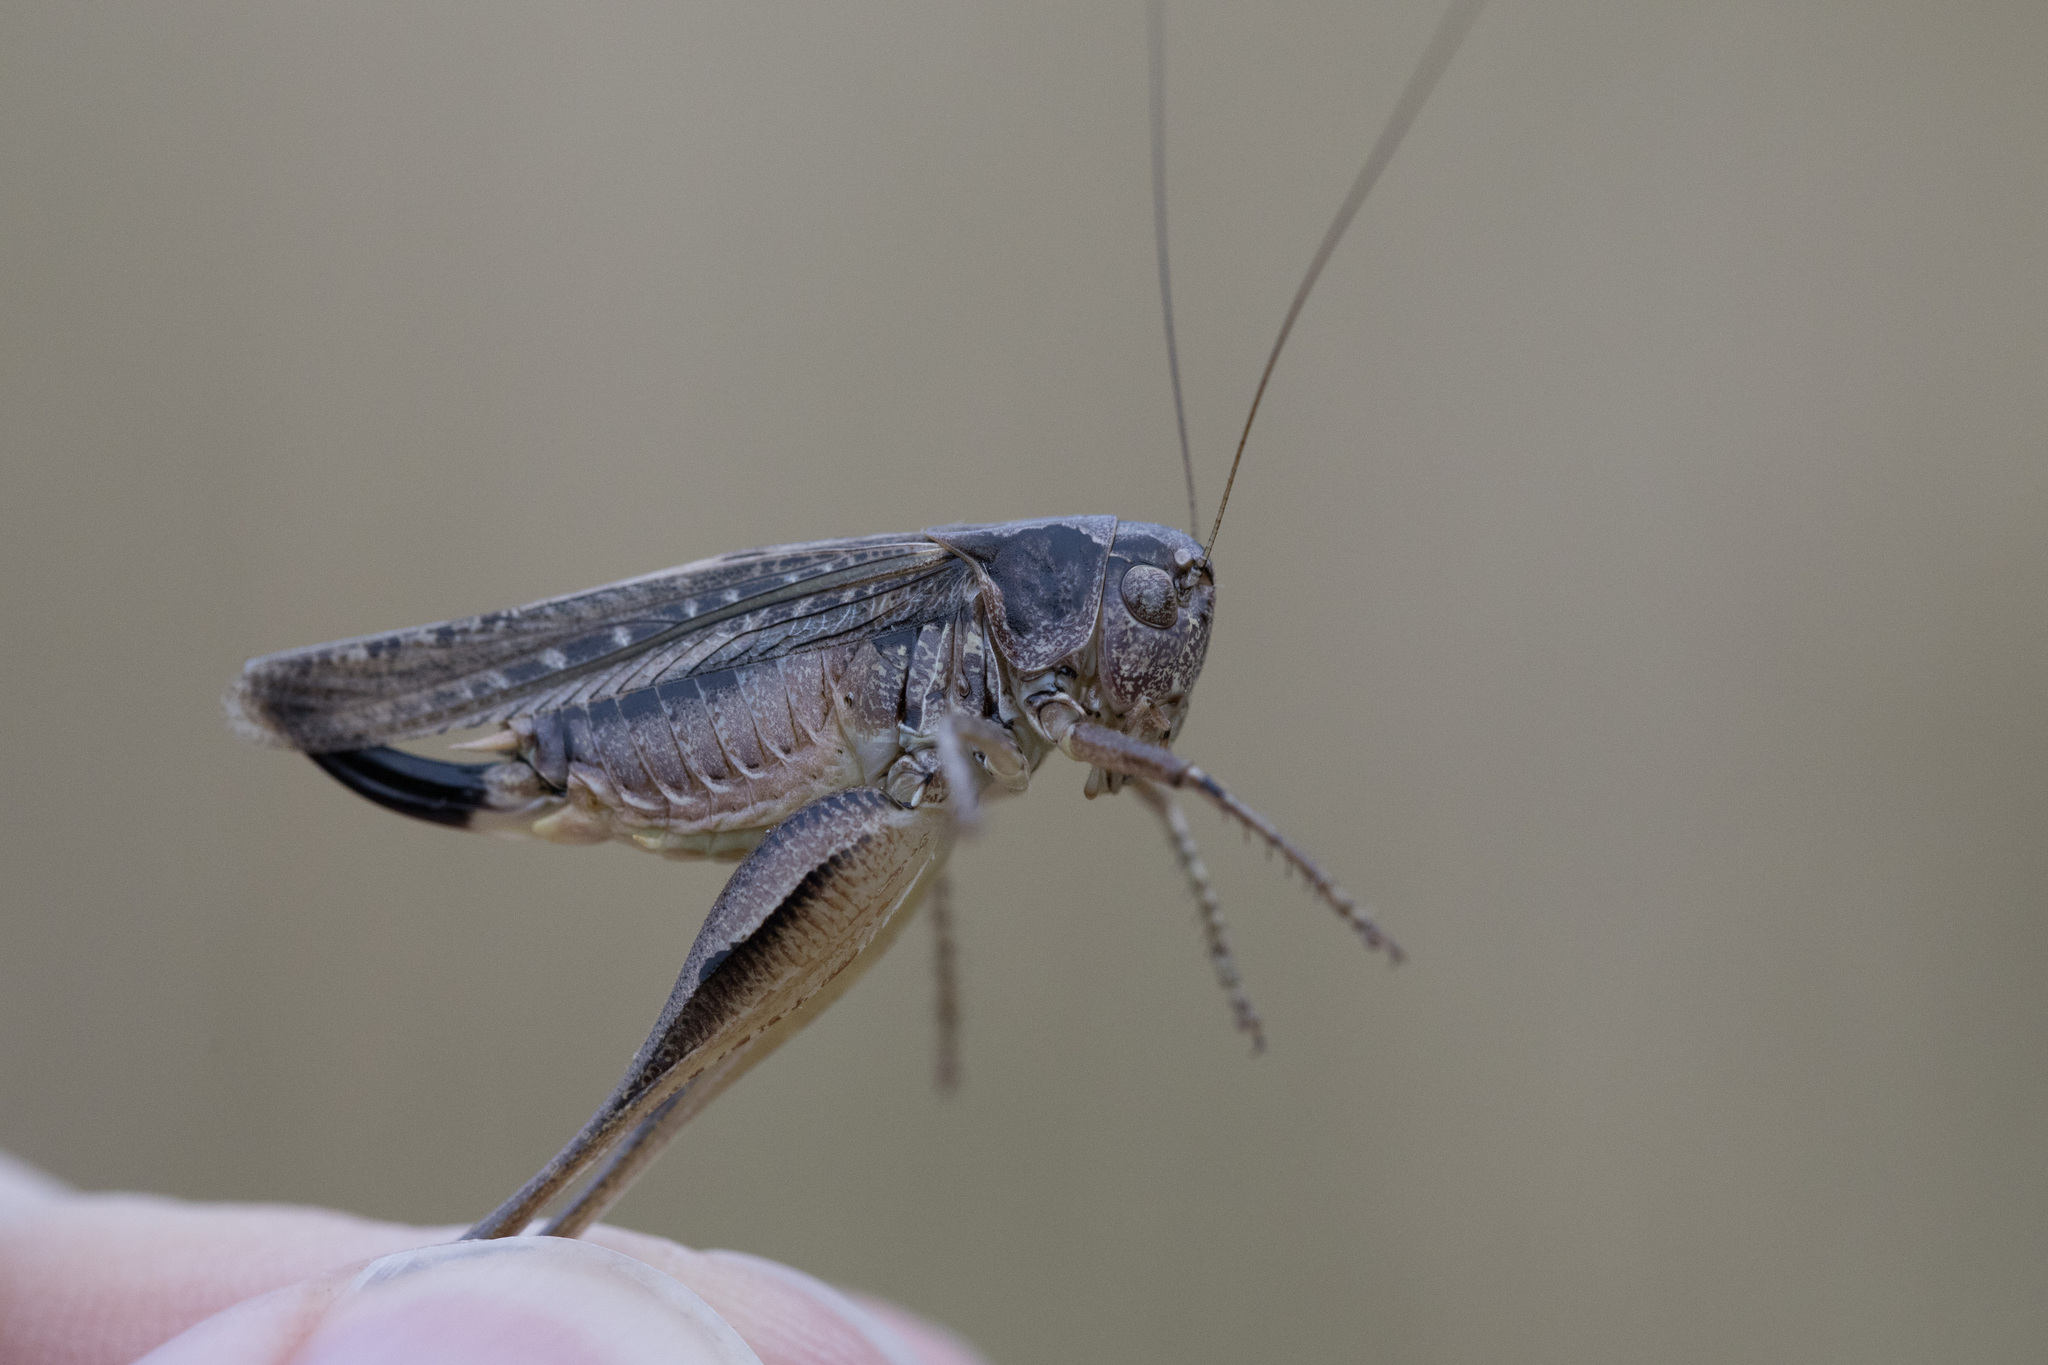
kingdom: Animalia
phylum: Arthropoda
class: Insecta
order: Orthoptera
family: Tettigoniidae
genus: Platycleis
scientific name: Platycleis albopunctata
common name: Grey bush-cricket
